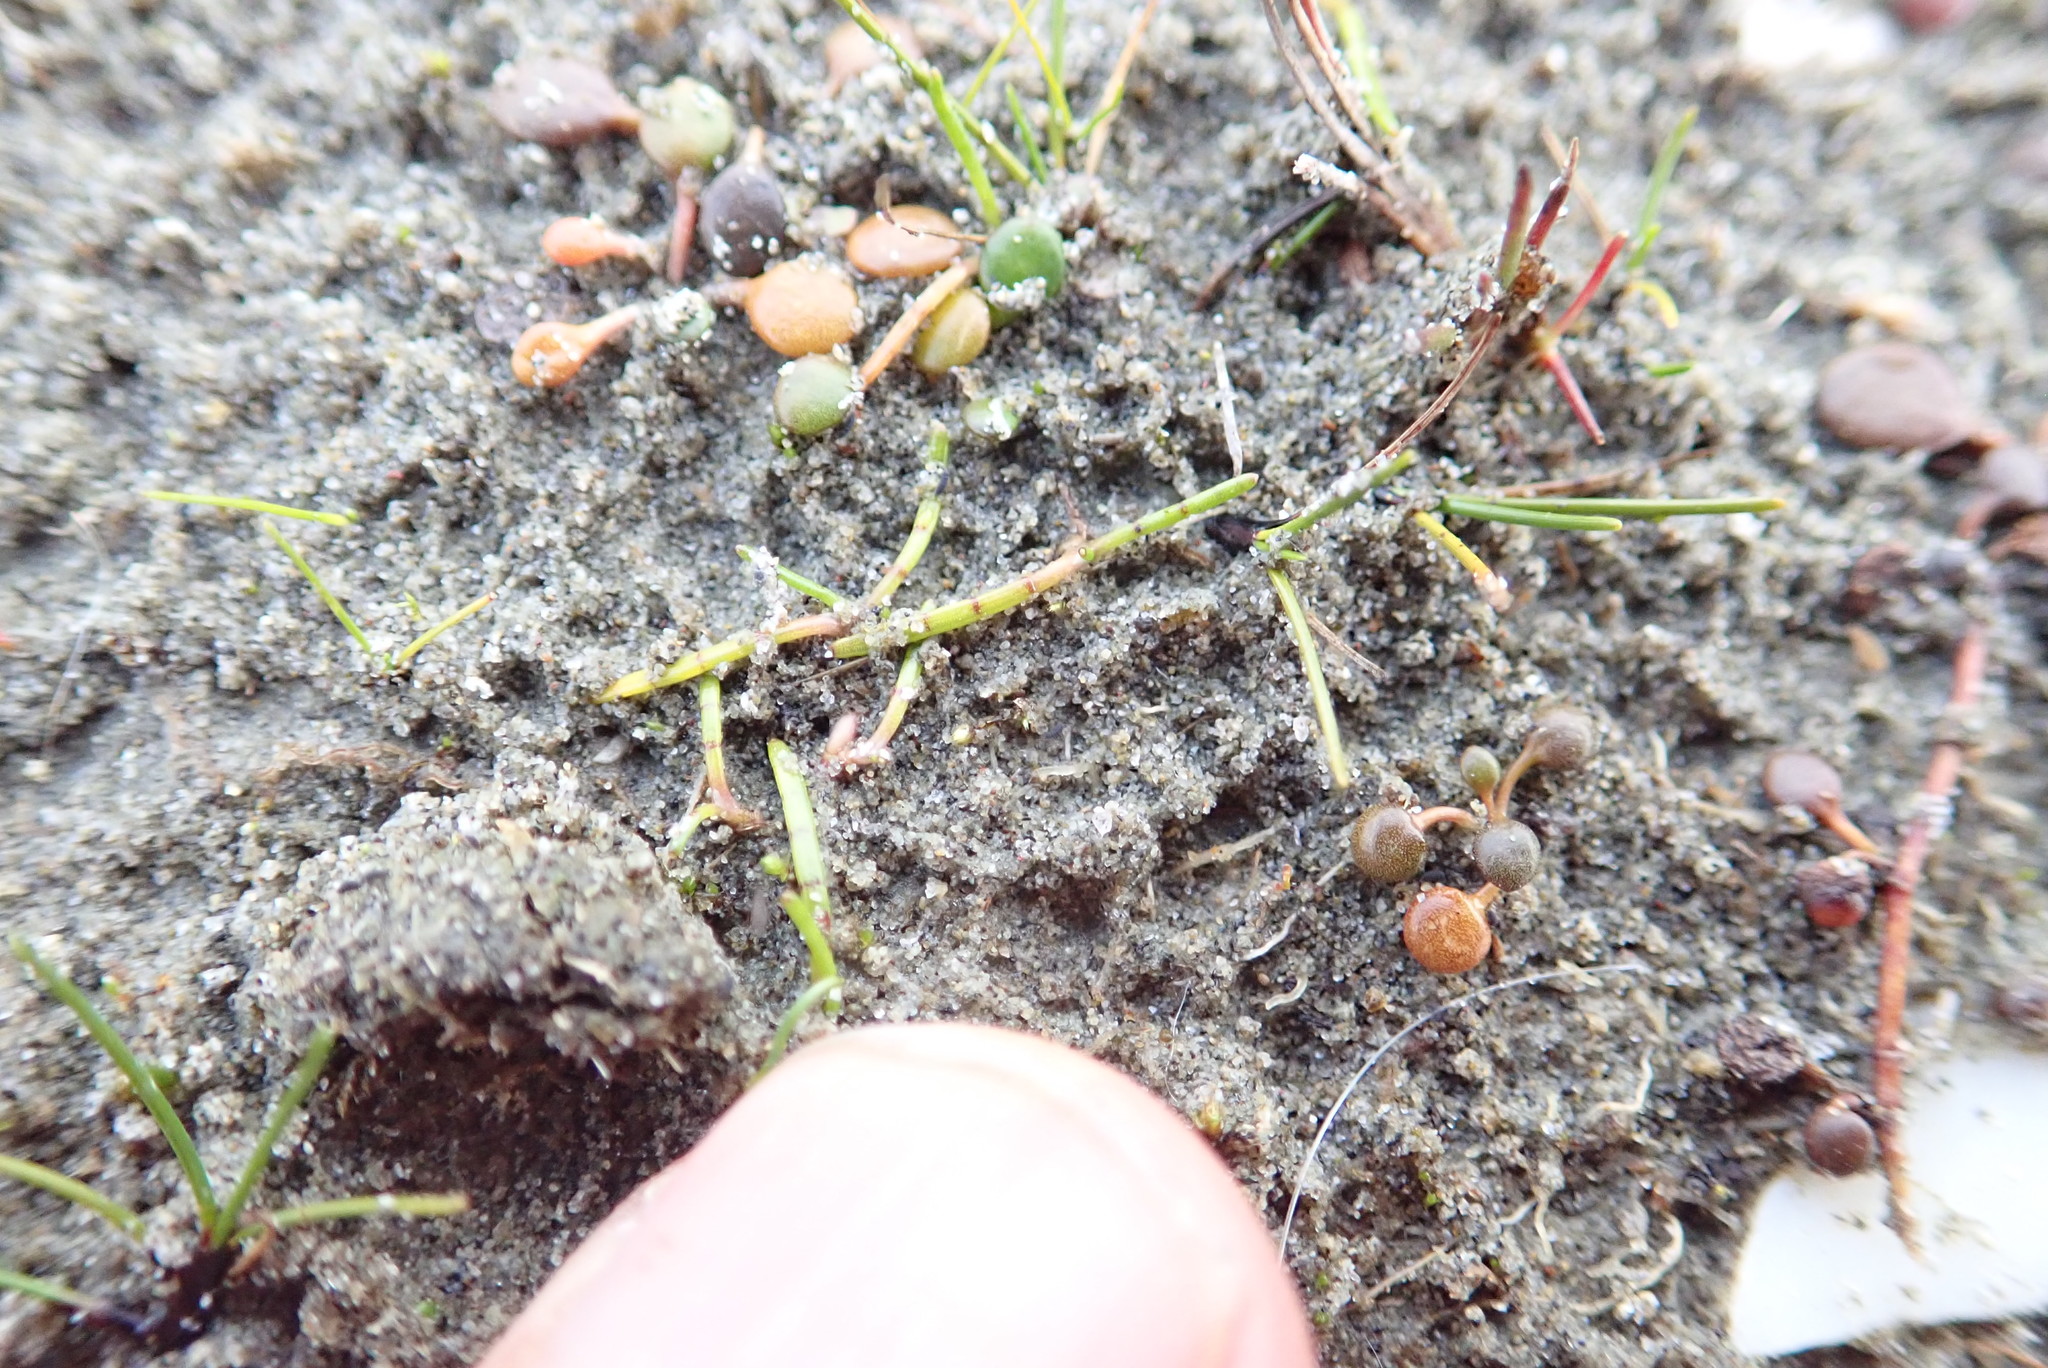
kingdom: Plantae
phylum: Tracheophyta
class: Magnoliopsida
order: Apiales
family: Apiaceae
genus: Lilaeopsis
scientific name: Lilaeopsis novae-zelandiae
